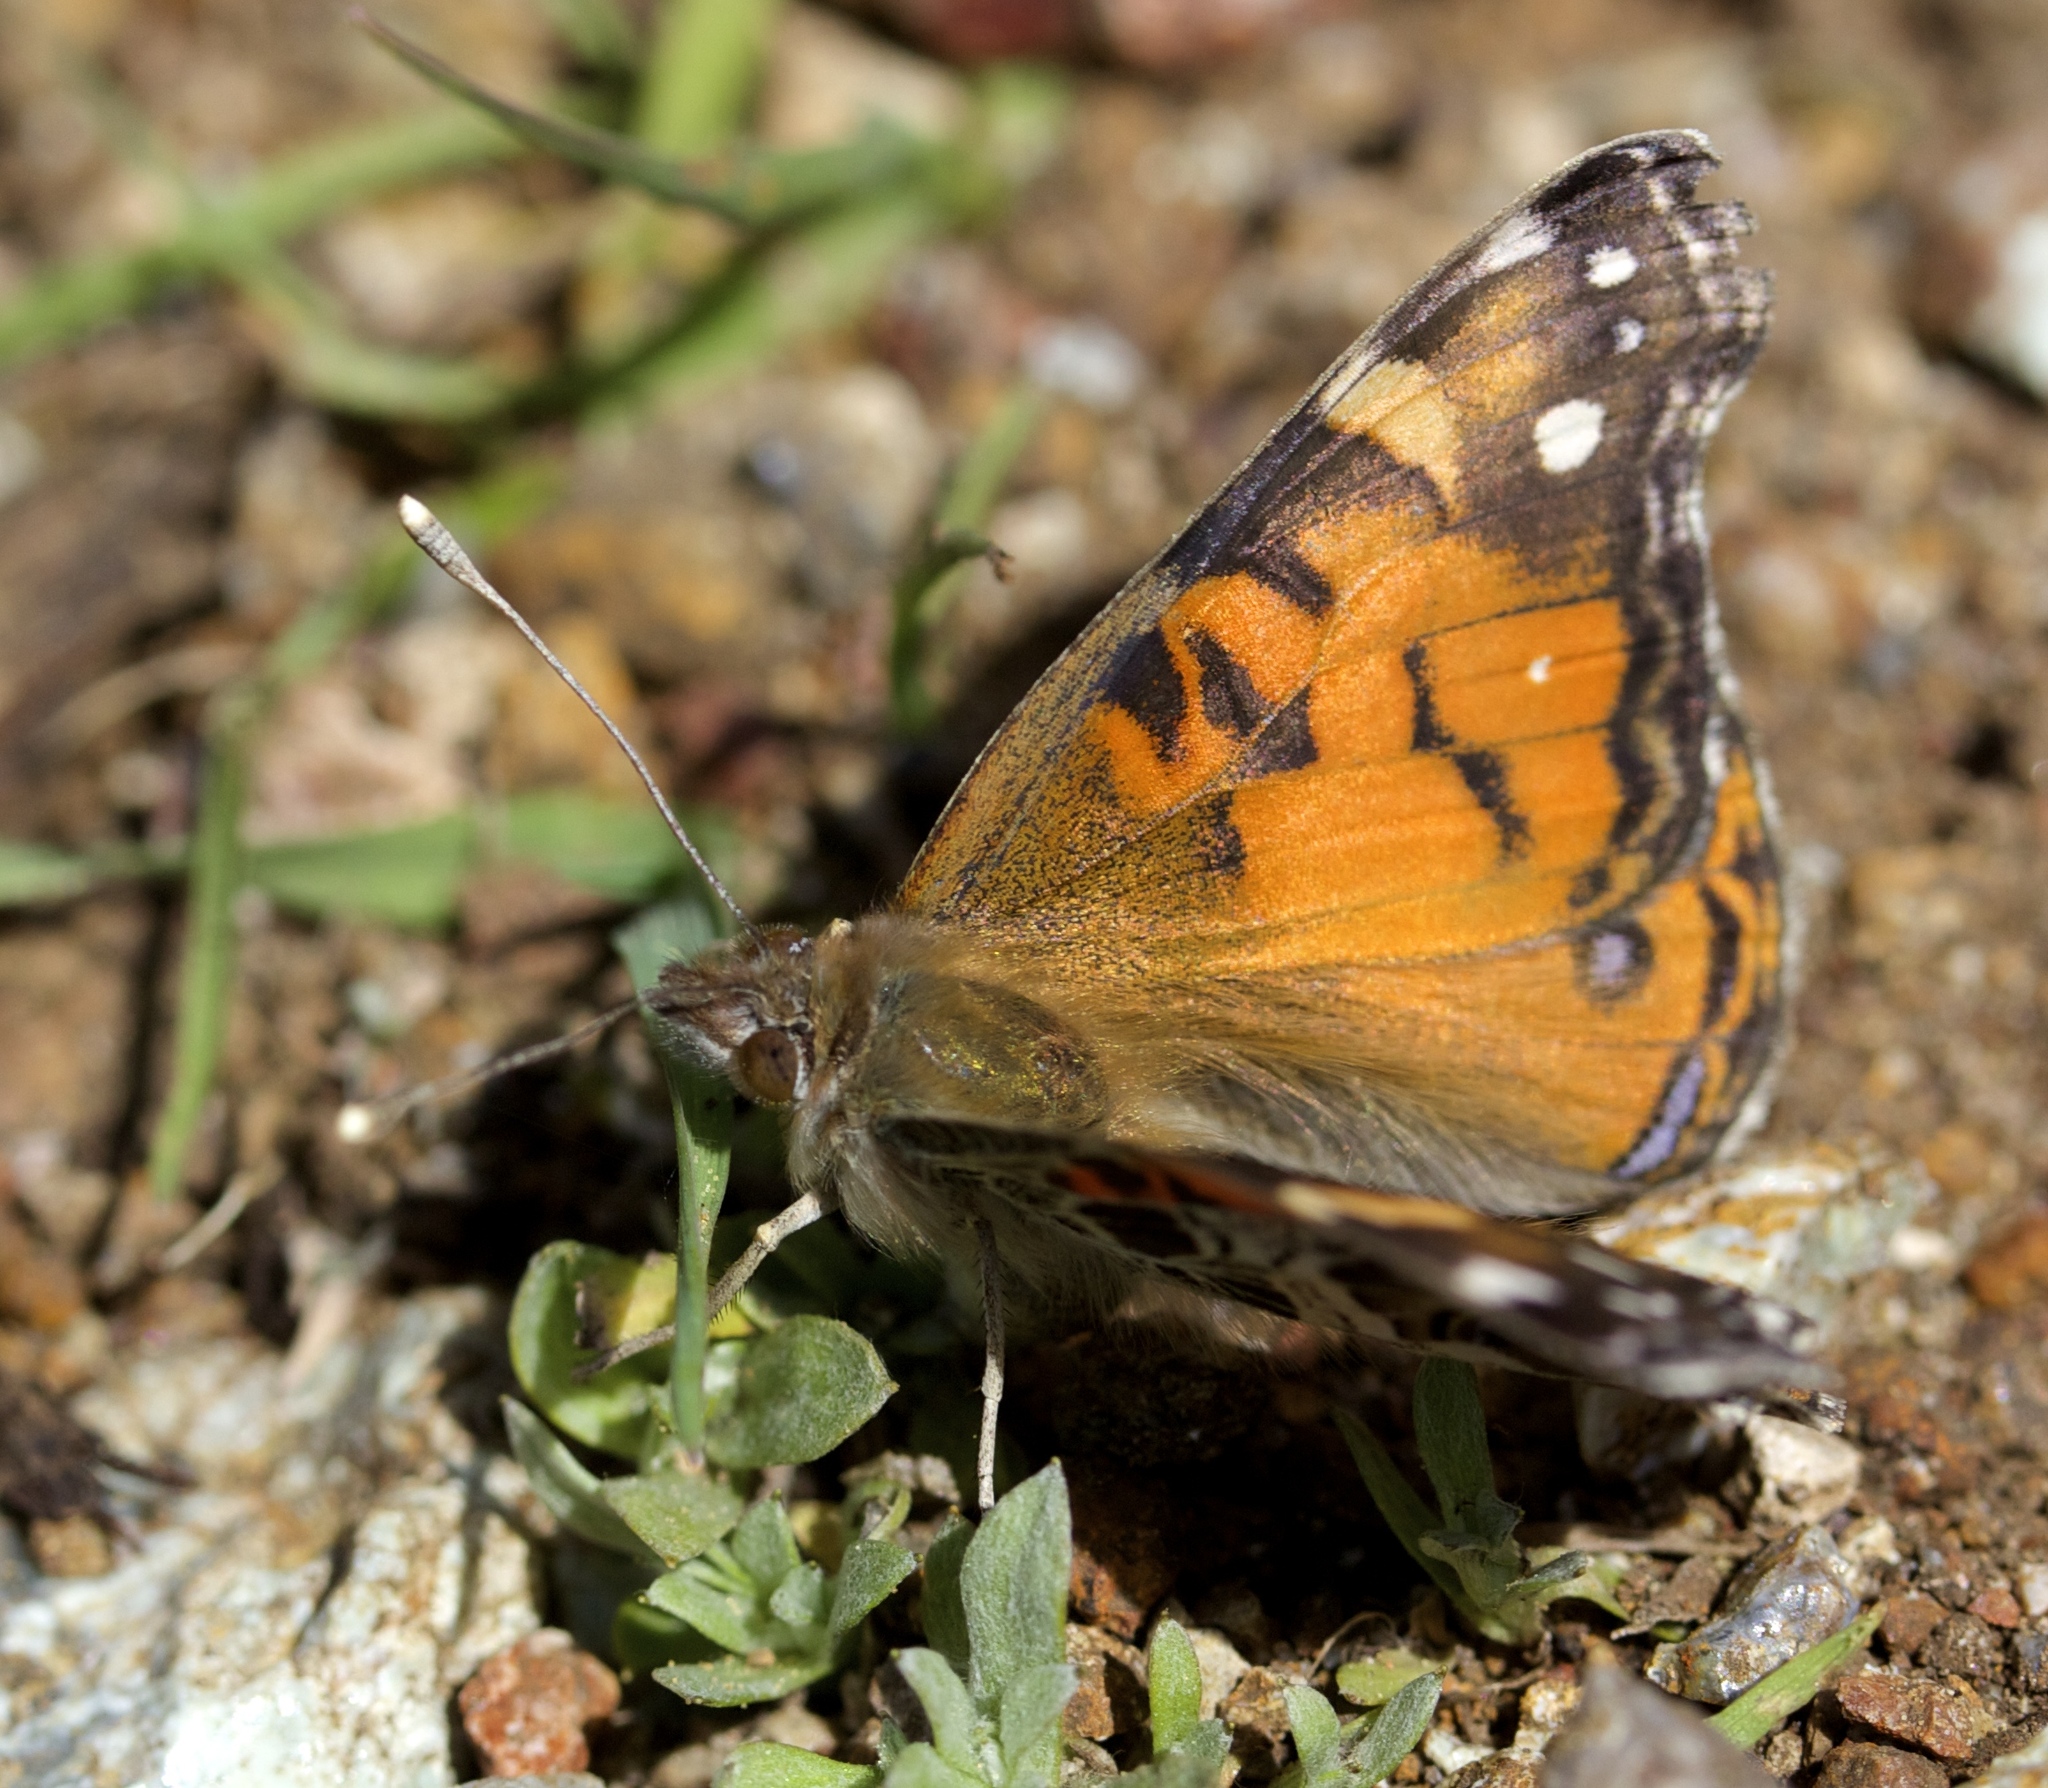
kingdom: Animalia
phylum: Arthropoda
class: Insecta
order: Lepidoptera
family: Nymphalidae
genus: Vanessa
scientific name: Vanessa virginiensis
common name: American lady
